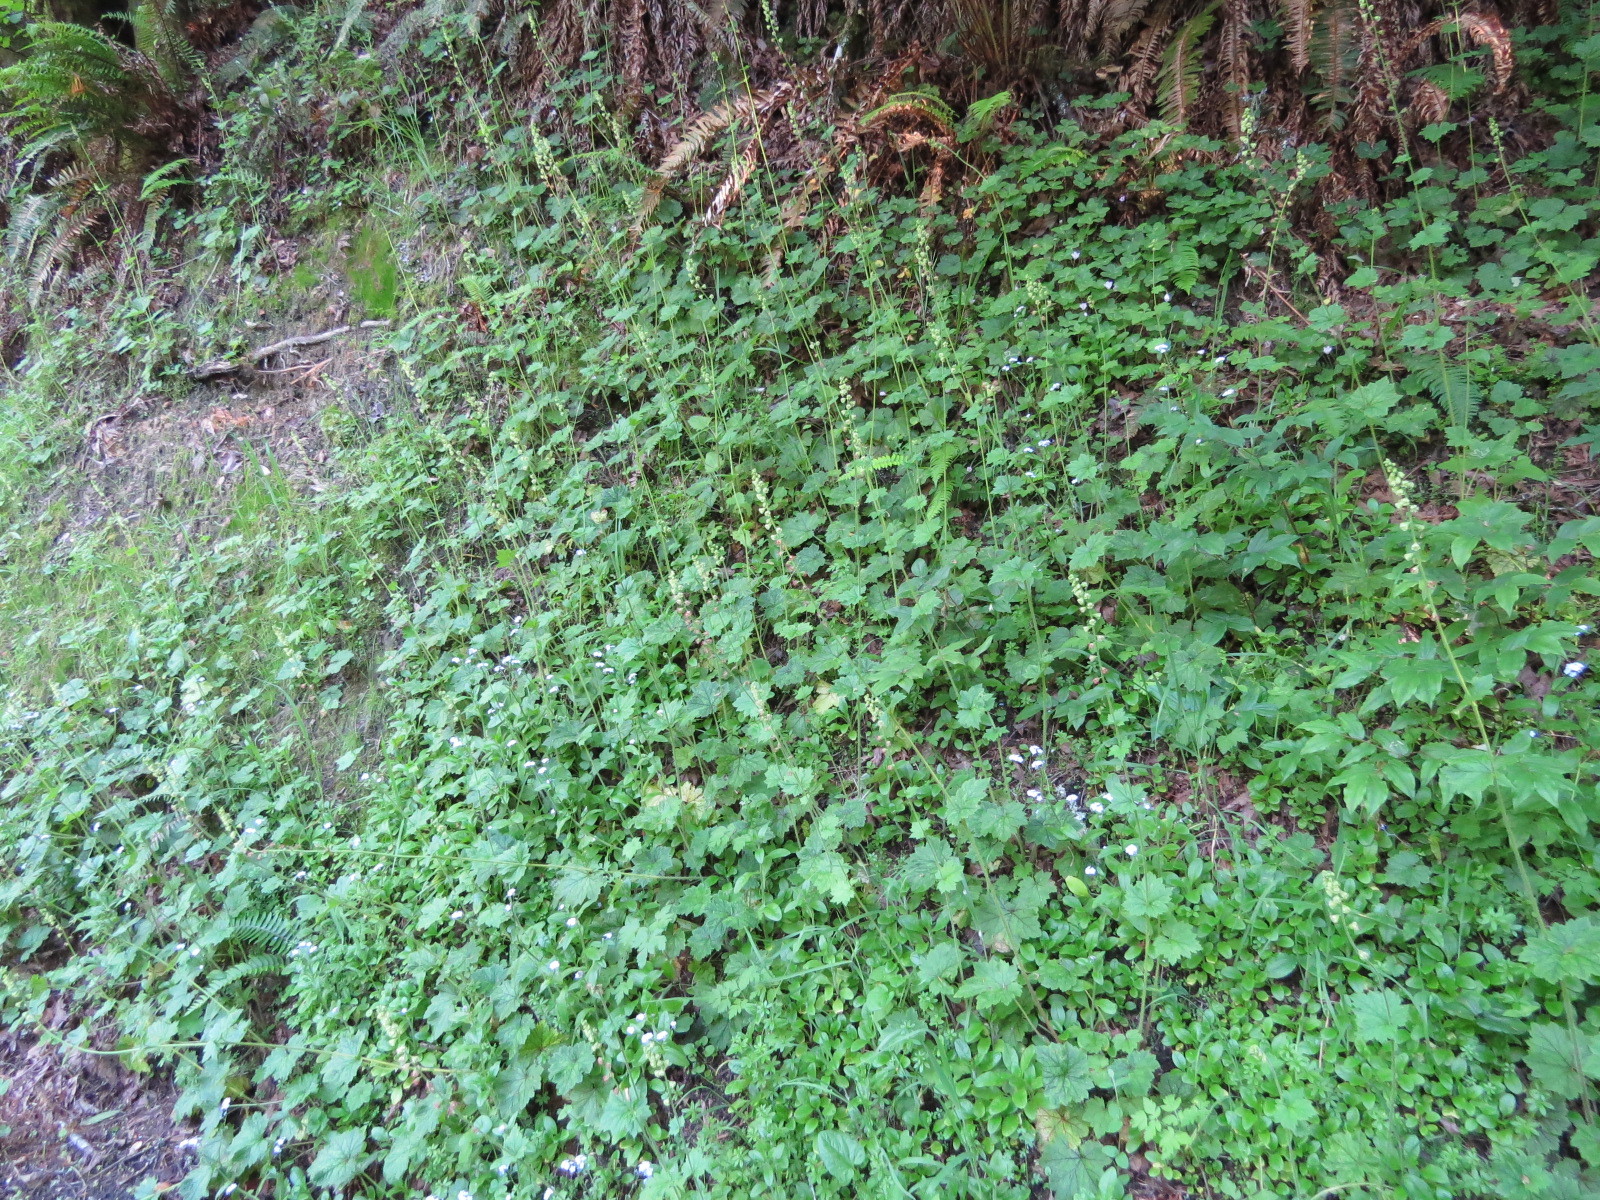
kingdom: Plantae
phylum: Tracheophyta
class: Magnoliopsida
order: Saxifragales
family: Saxifragaceae
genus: Tellima
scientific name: Tellima grandiflora
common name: Fringecups
